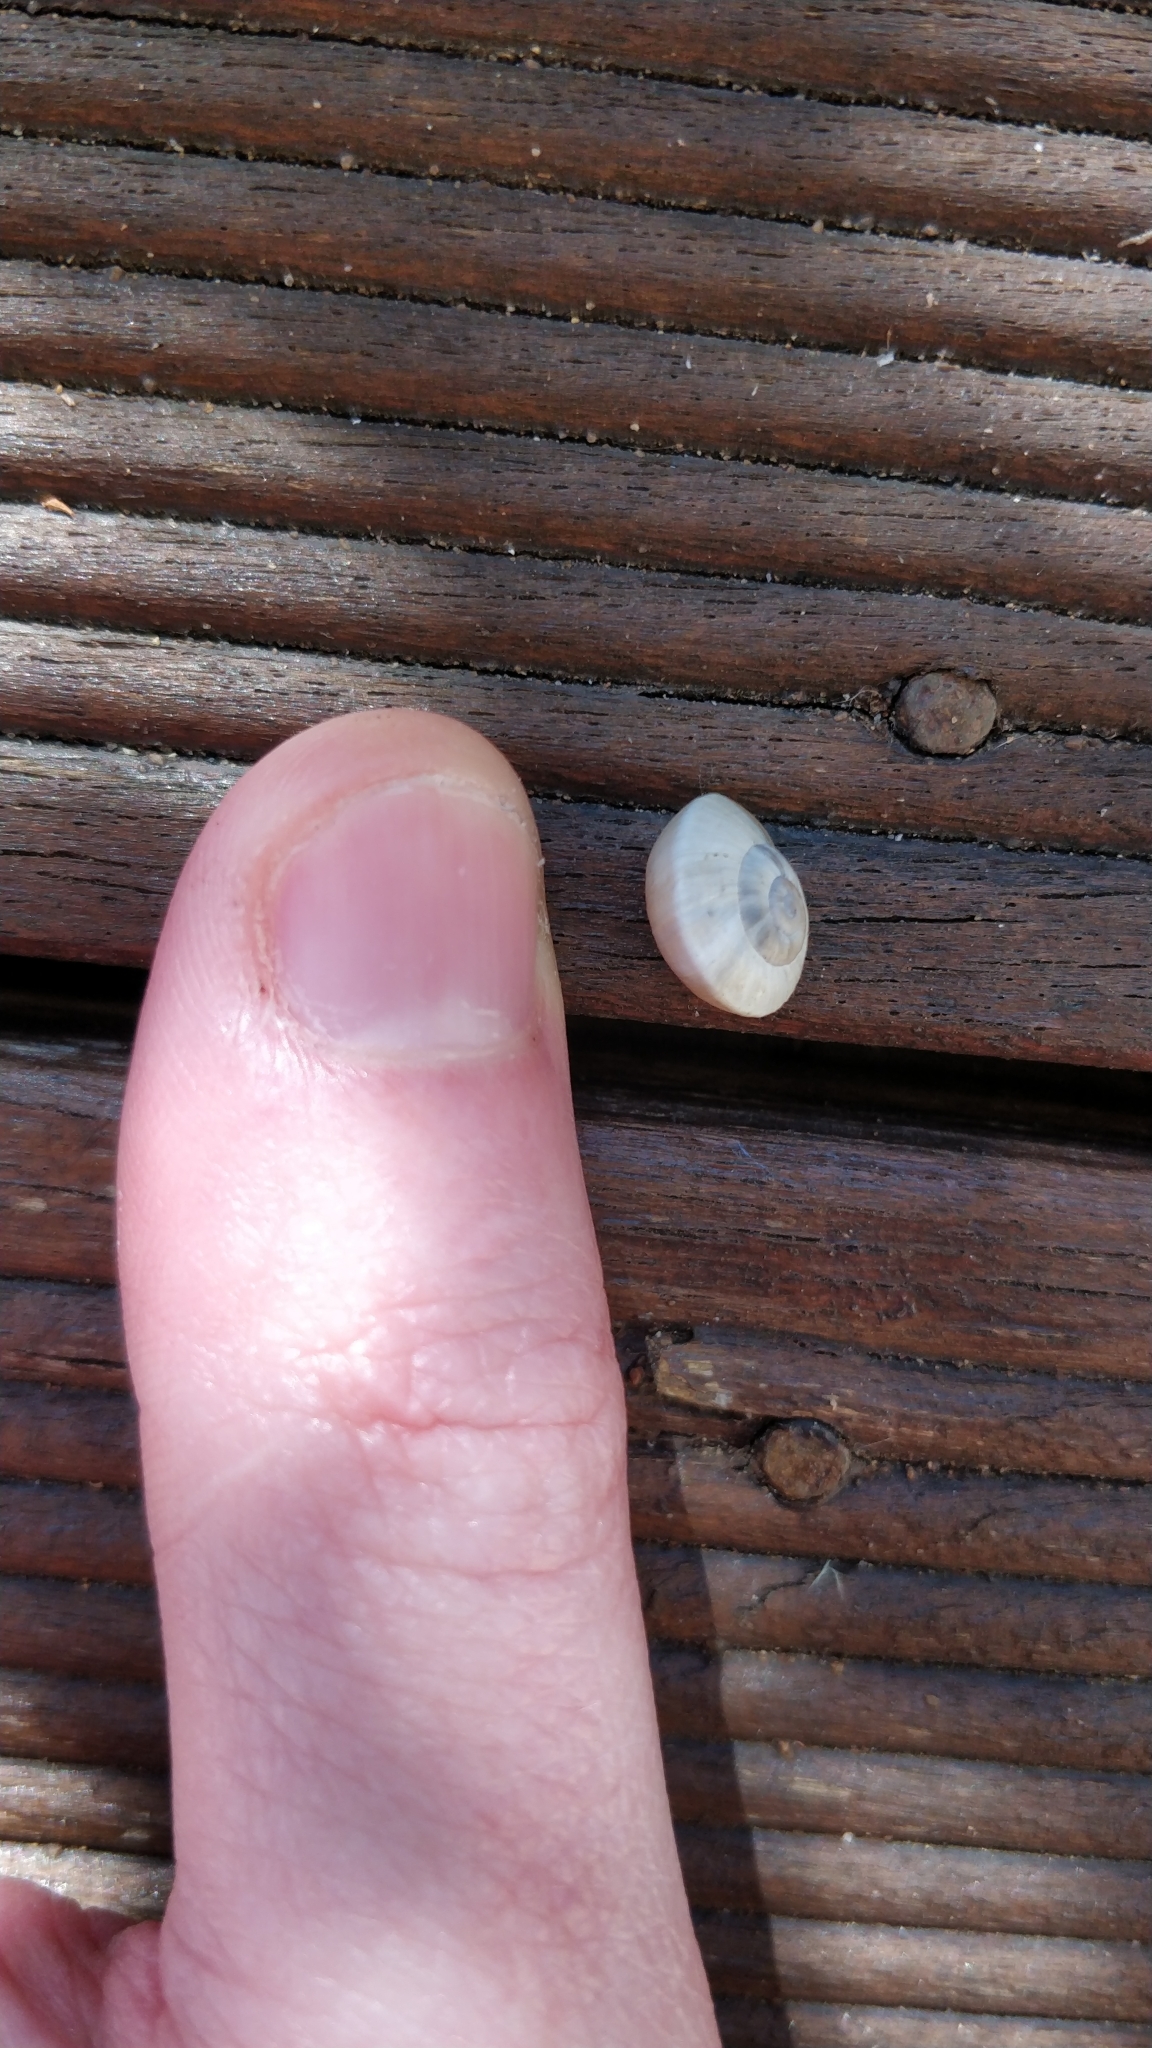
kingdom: Animalia
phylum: Mollusca
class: Gastropoda
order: Stylommatophora
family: Helicidae
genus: Theba
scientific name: Theba pisana
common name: White snail
